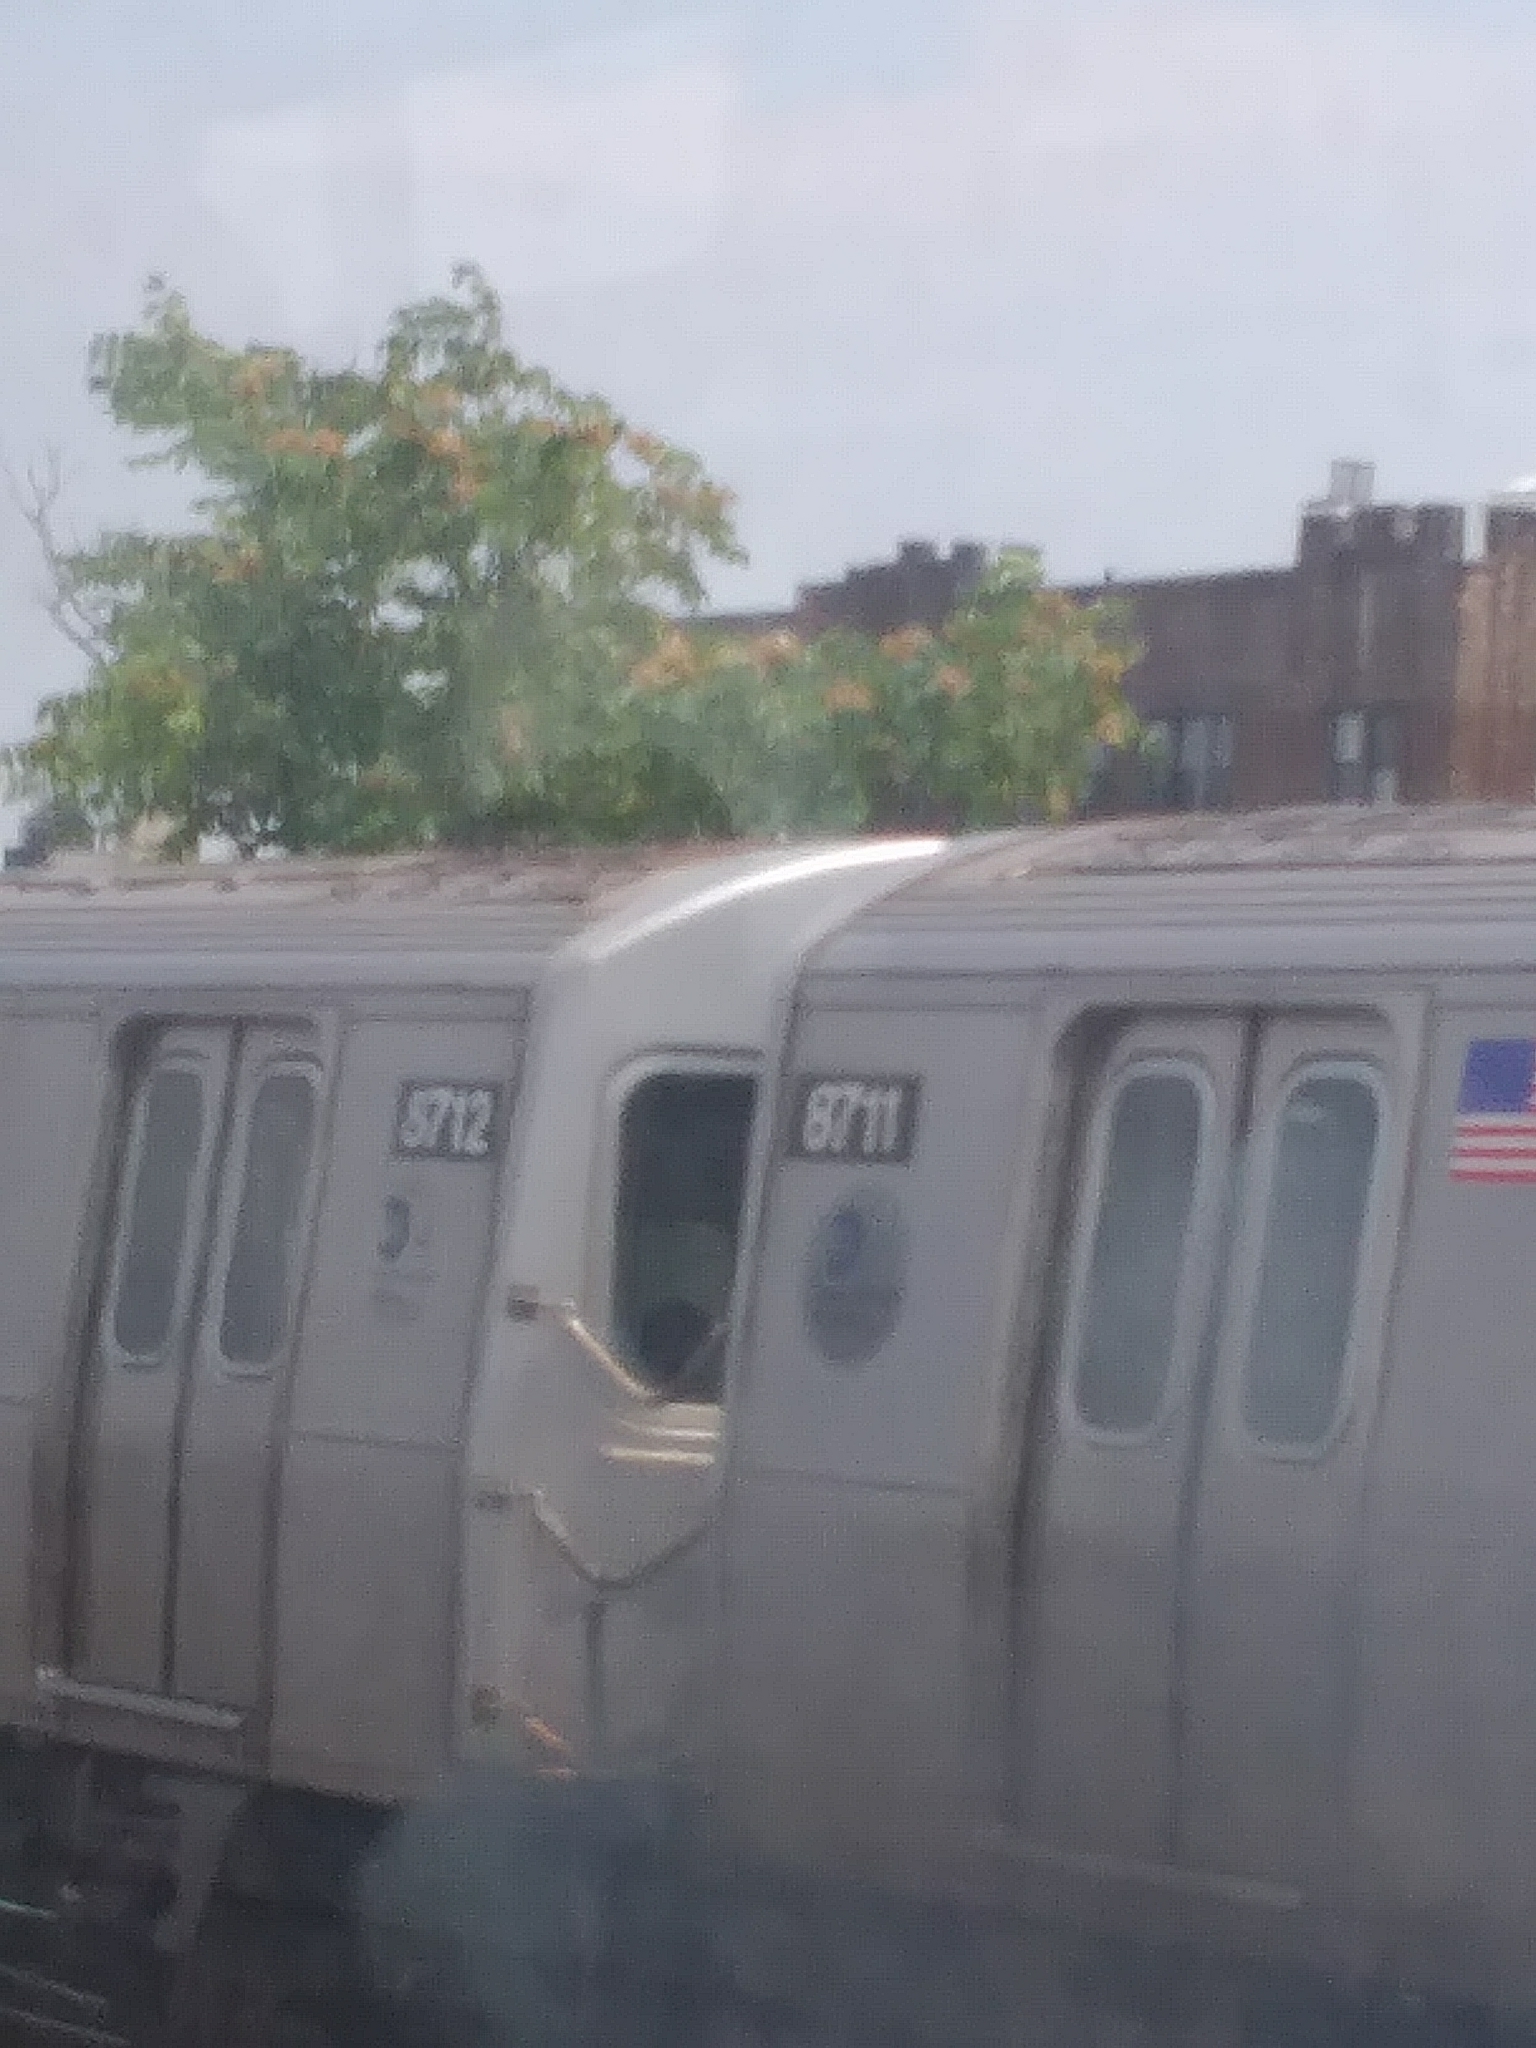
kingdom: Plantae
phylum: Tracheophyta
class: Magnoliopsida
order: Sapindales
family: Simaroubaceae
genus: Ailanthus
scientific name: Ailanthus altissima
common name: Tree-of-heaven
